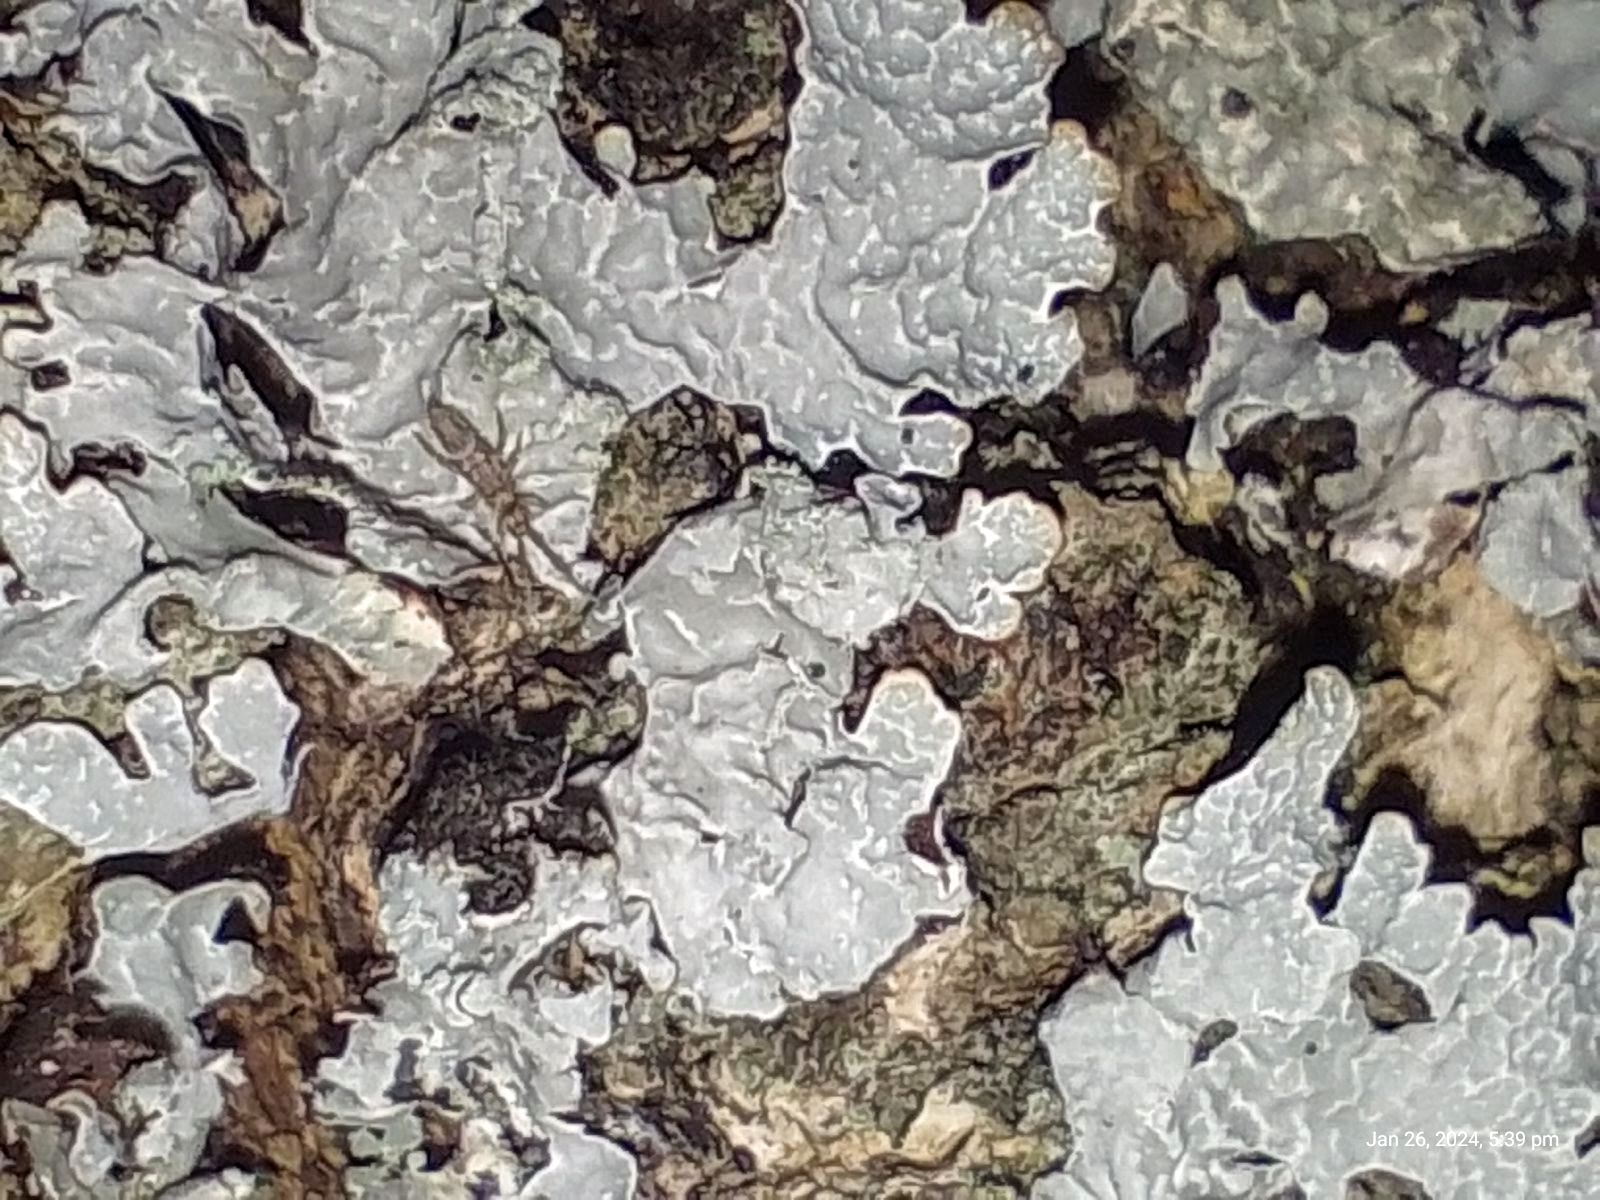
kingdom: Fungi
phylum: Ascomycota
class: Lecanoromycetes
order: Lecanorales
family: Parmeliaceae
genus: Parmelia
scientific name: Parmelia sulcata
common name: Netted shield lichen
